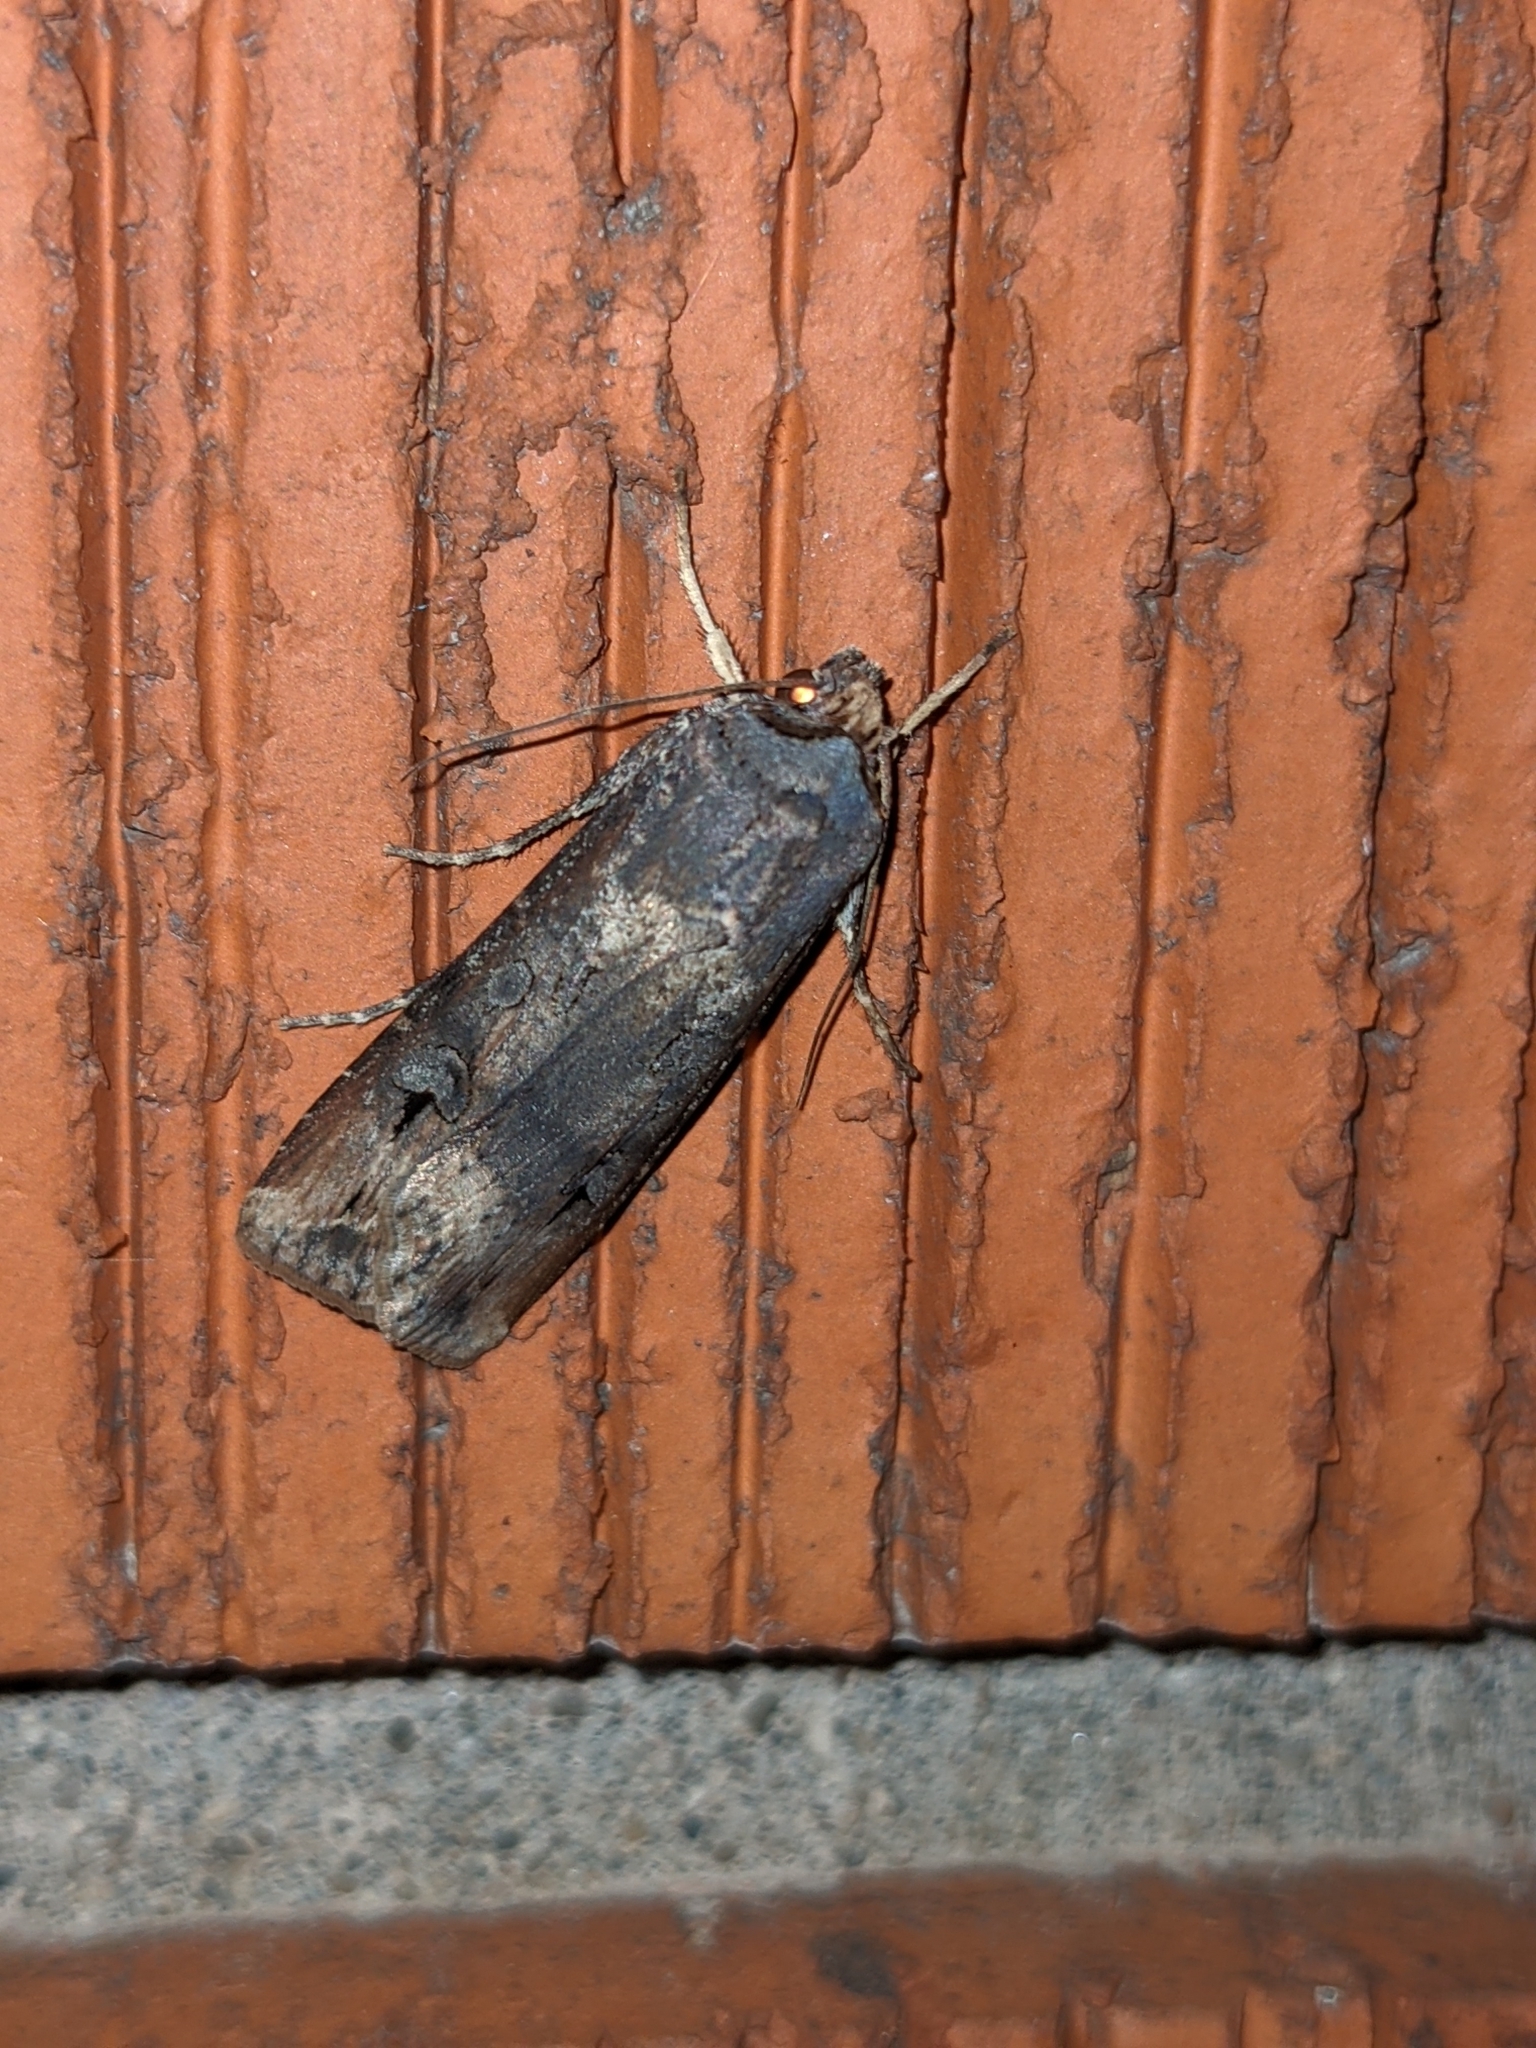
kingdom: Animalia
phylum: Arthropoda
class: Insecta
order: Lepidoptera
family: Noctuidae
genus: Agrotis
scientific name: Agrotis ipsilon
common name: Dark sword-grass
